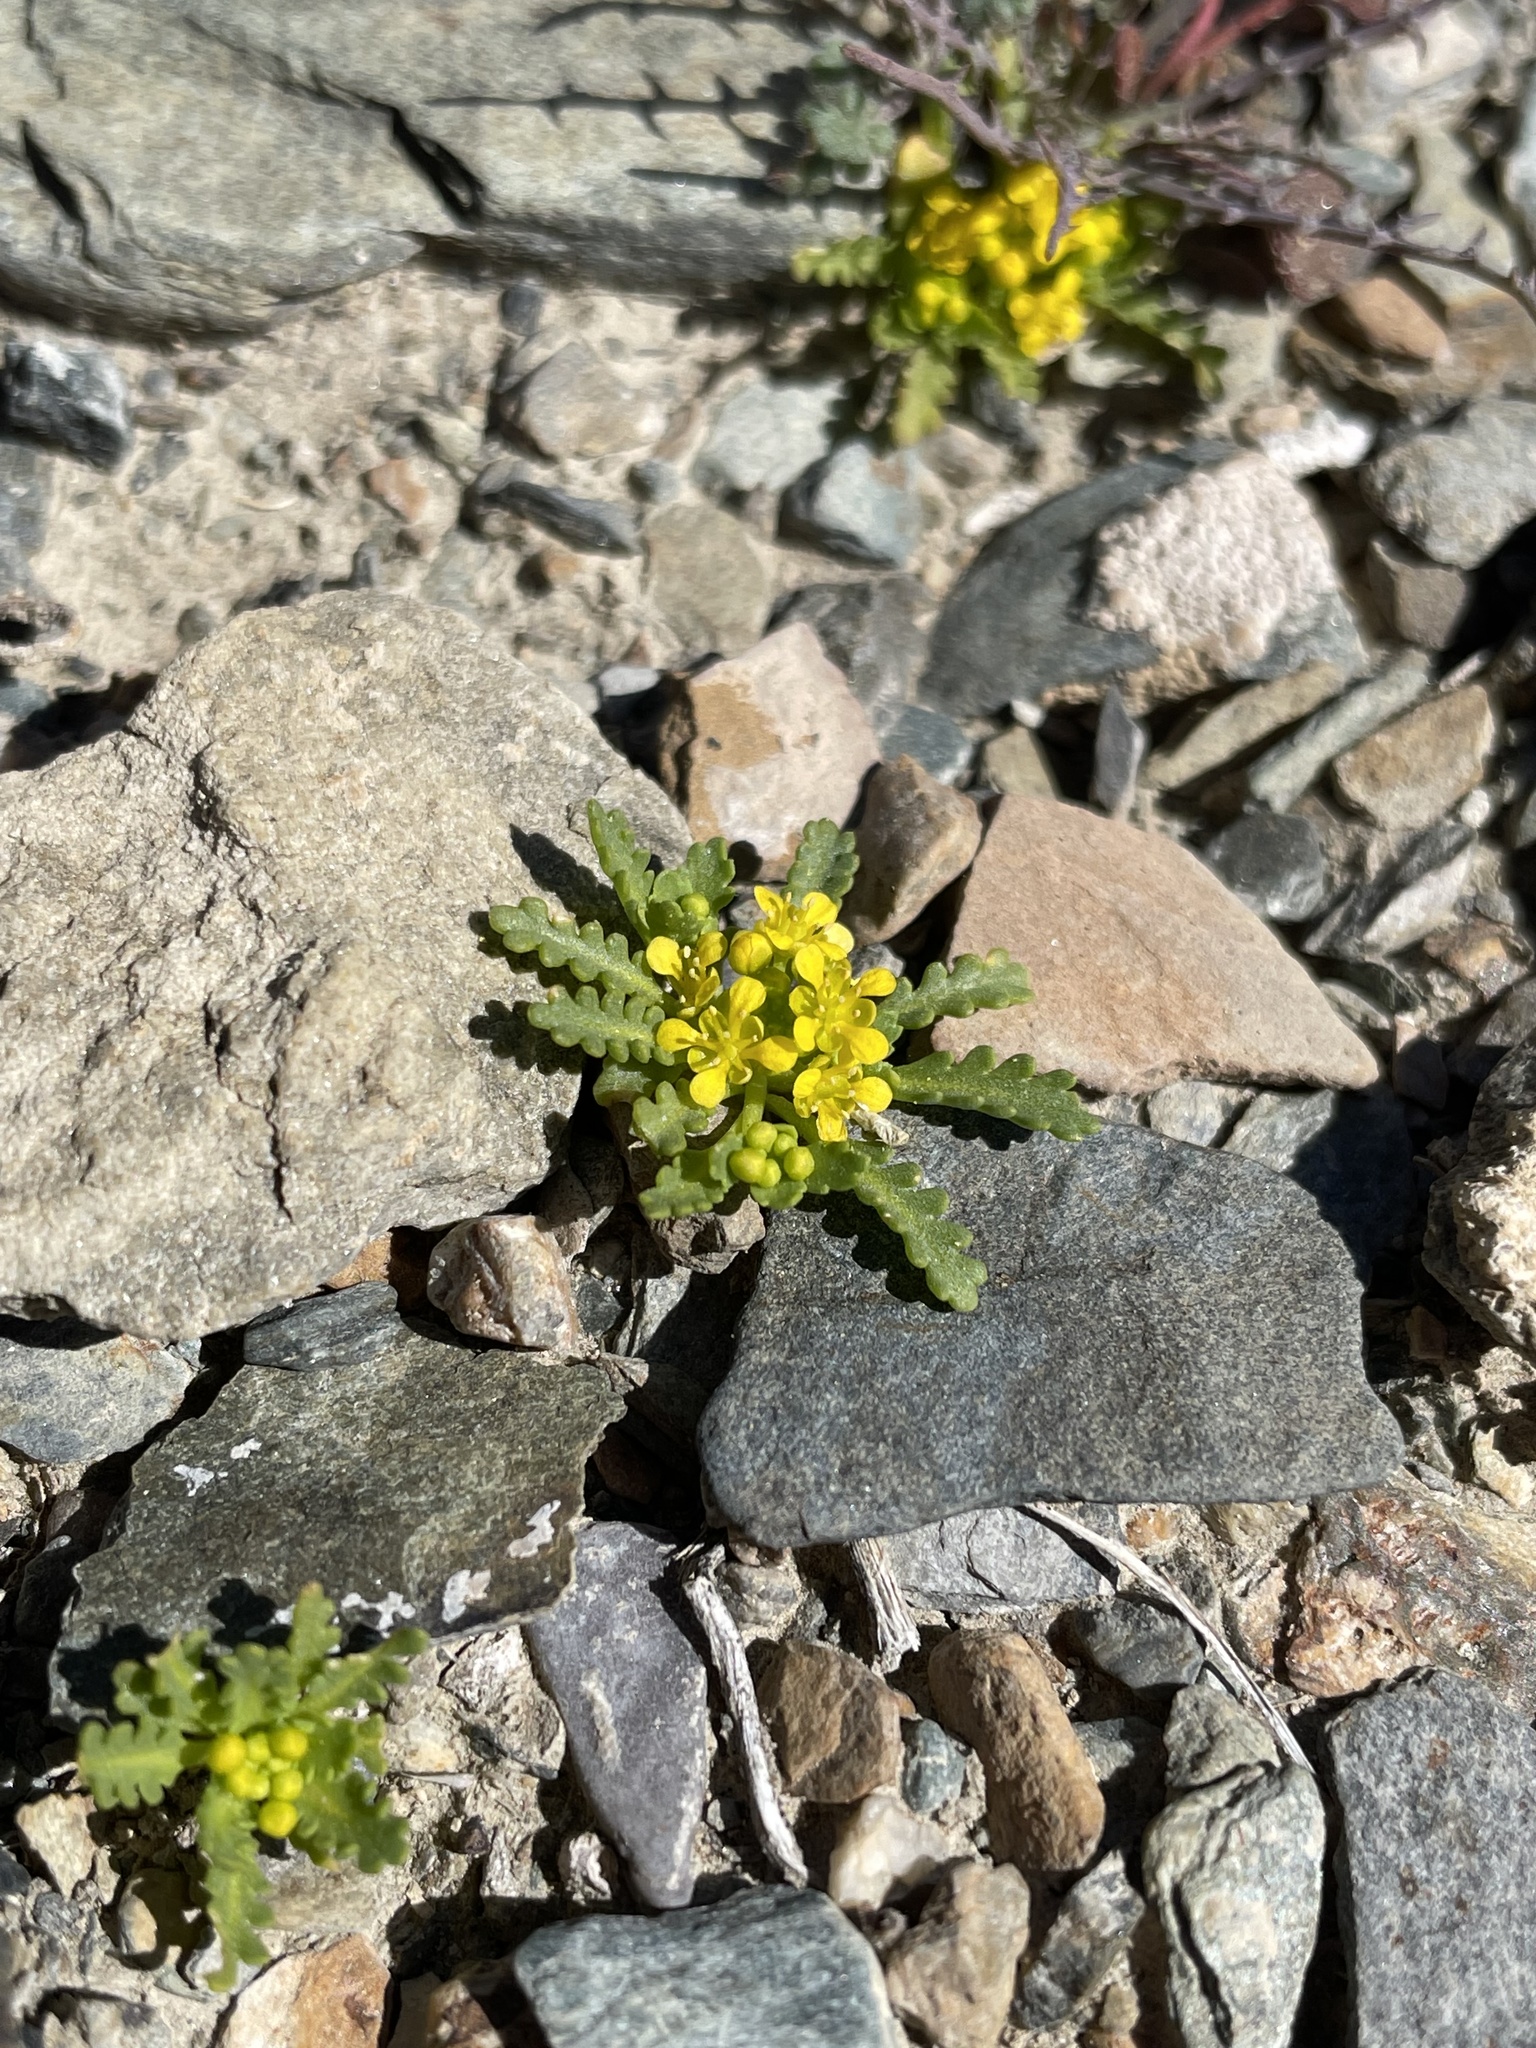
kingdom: Plantae
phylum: Tracheophyta
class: Magnoliopsida
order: Brassicales
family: Brassicaceae
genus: Lepidium
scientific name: Lepidium flavum
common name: Yellow pepperwort
